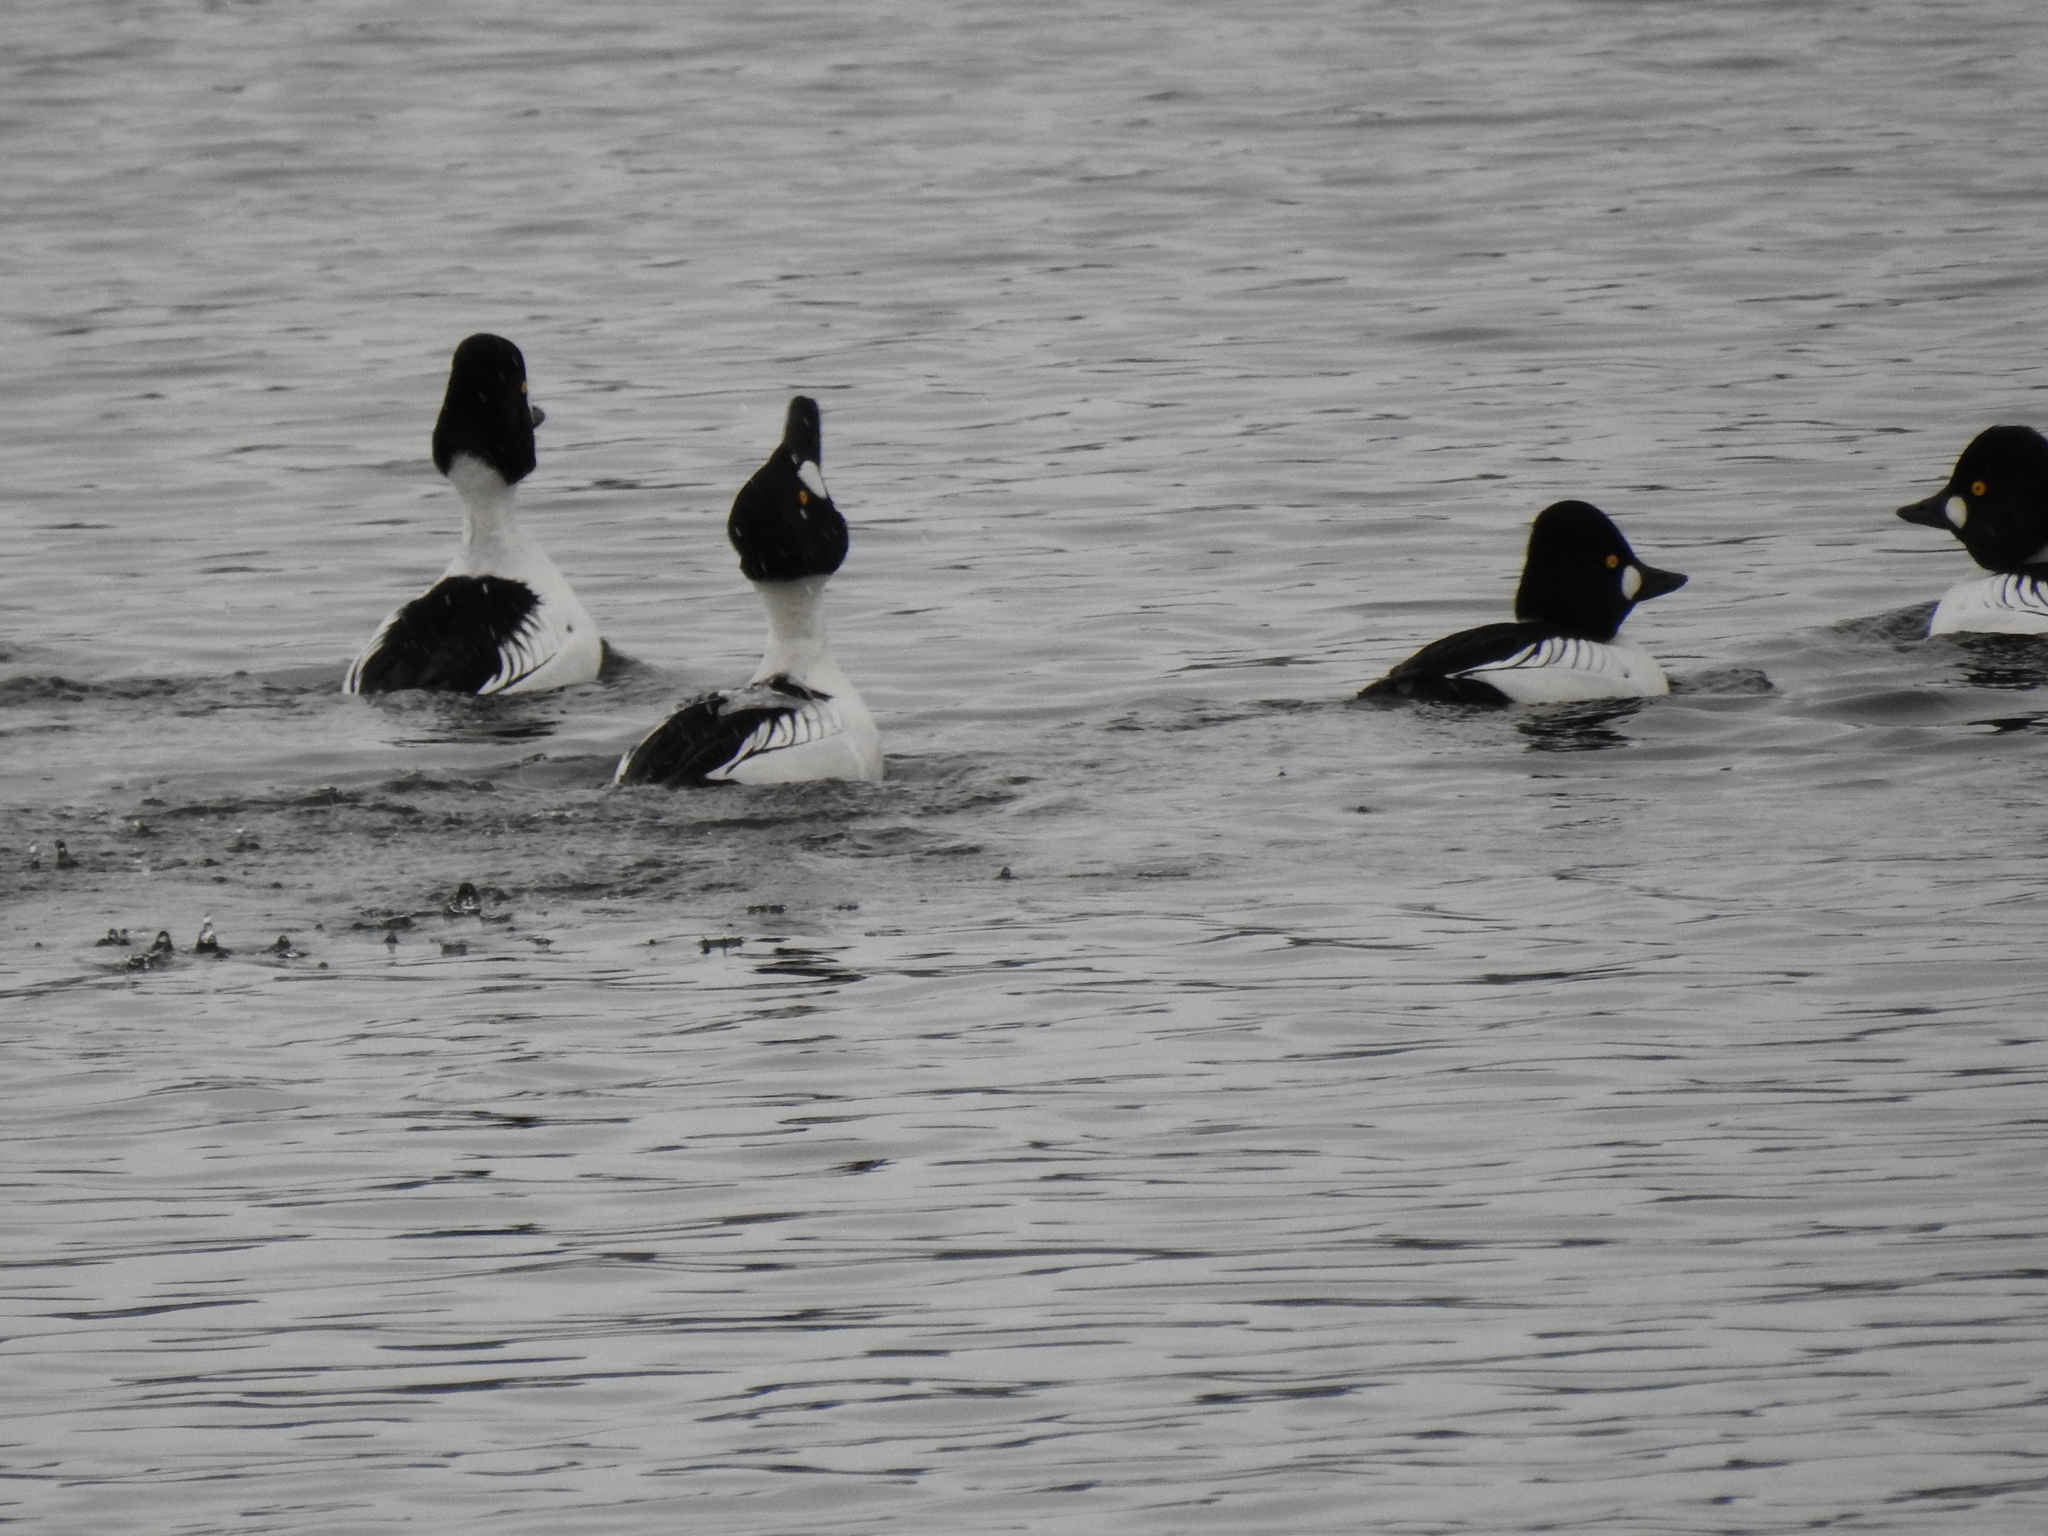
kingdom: Animalia
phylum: Chordata
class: Aves
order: Anseriformes
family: Anatidae
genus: Bucephala
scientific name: Bucephala clangula
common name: Common goldeneye
